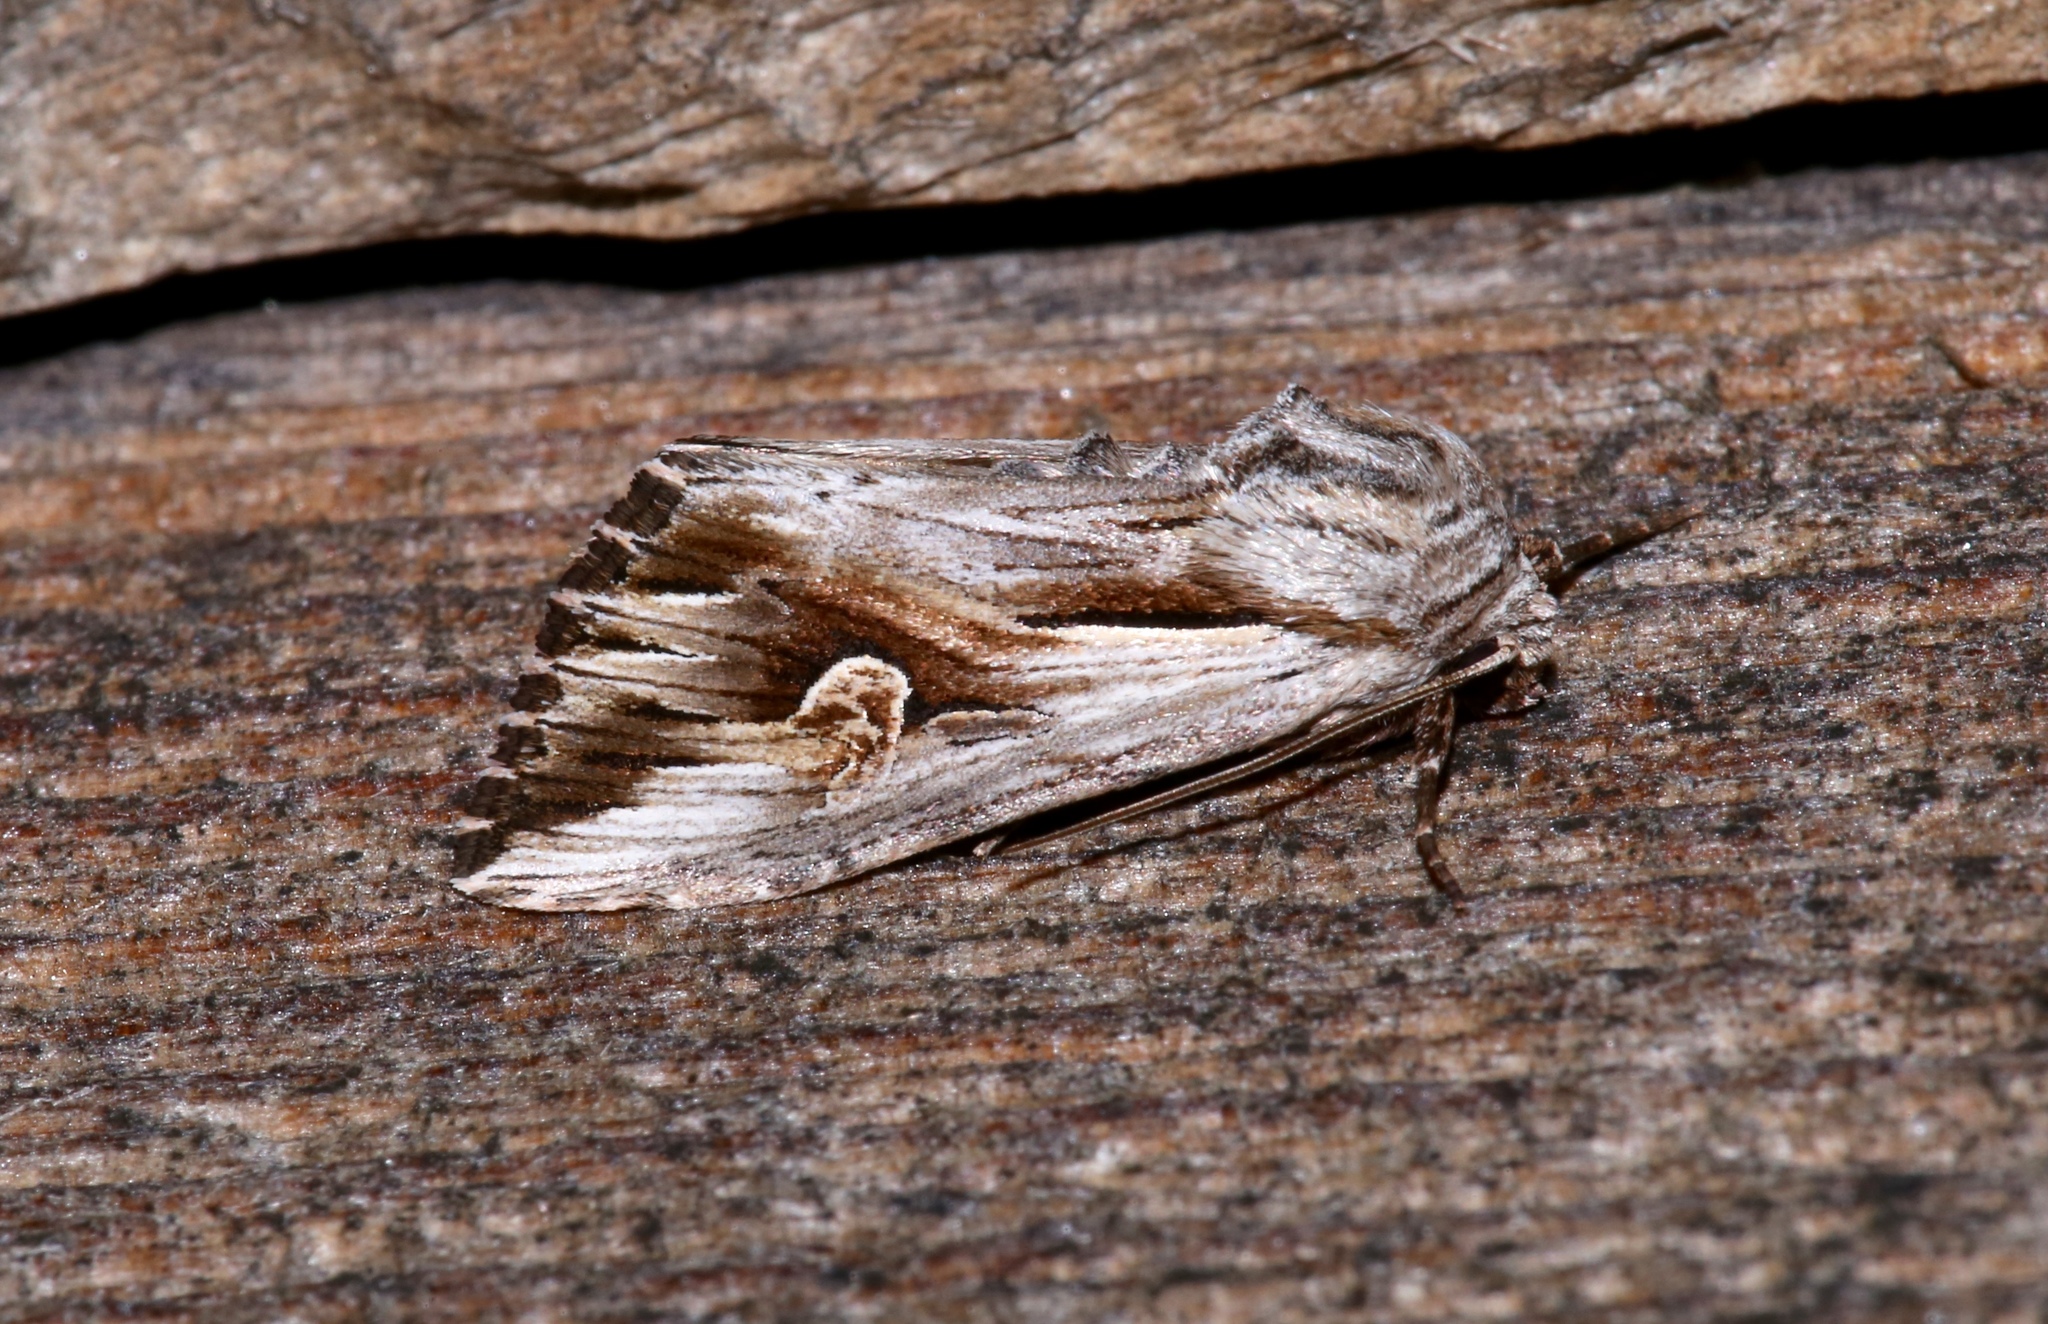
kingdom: Animalia
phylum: Arthropoda
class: Insecta
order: Lepidoptera
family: Noctuidae
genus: Nedra
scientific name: Nedra ramosula
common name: Gray half-spot
